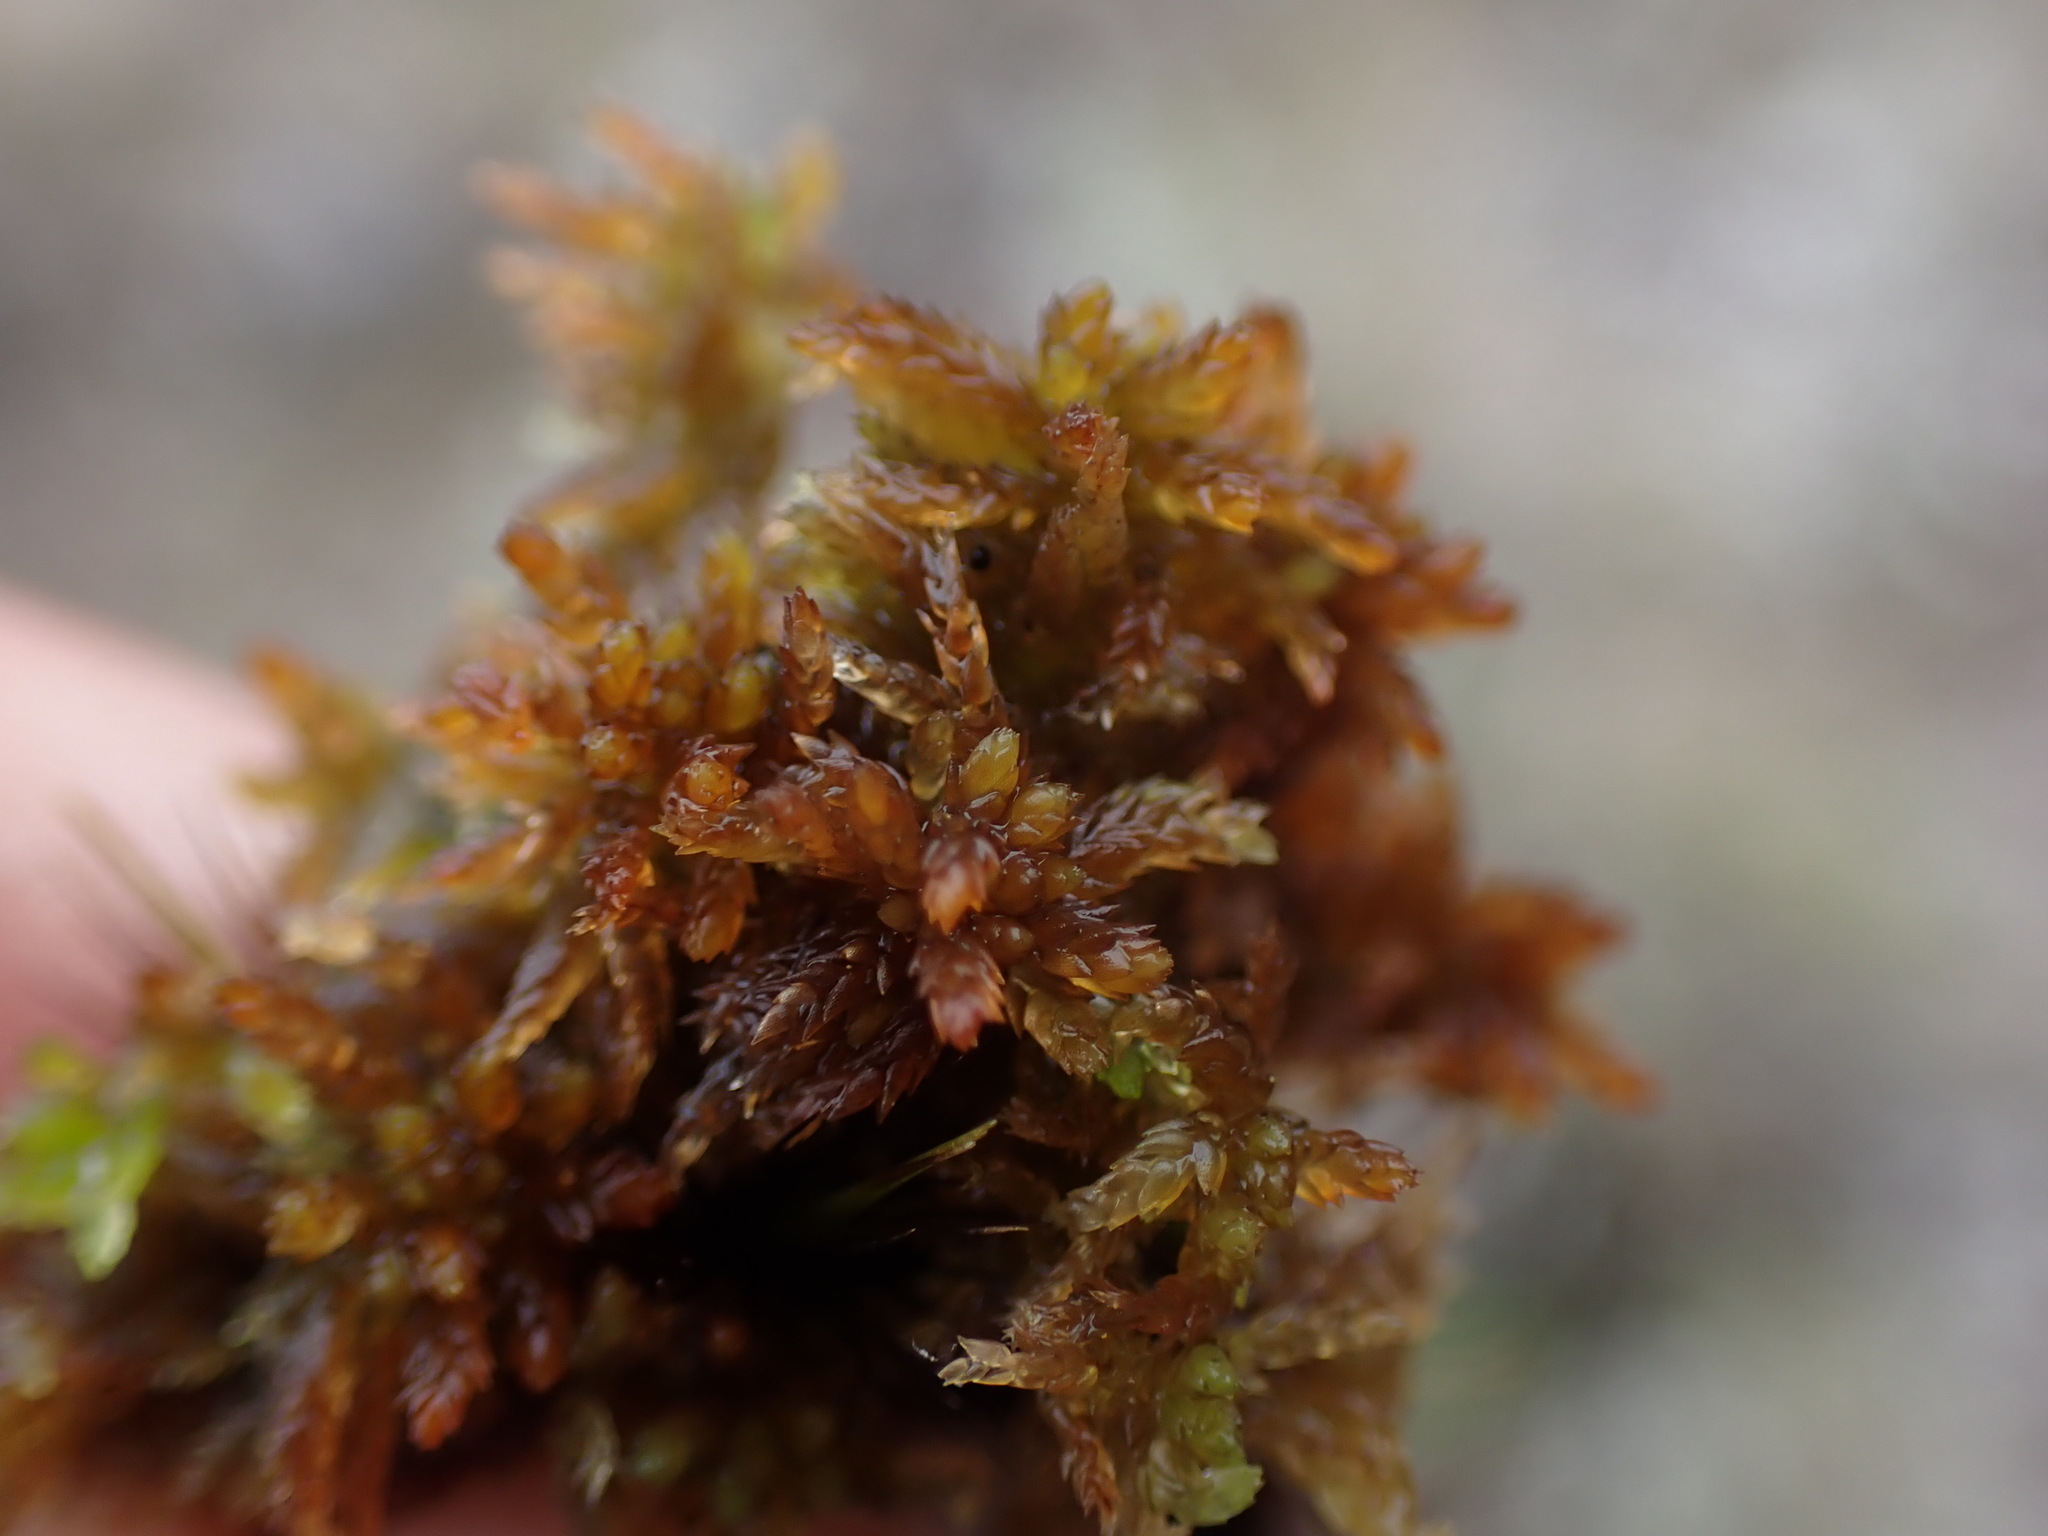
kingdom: Plantae
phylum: Bryophyta
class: Sphagnopsida
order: Sphagnales
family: Sphagnaceae
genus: Sphagnum
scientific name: Sphagnum tenellum
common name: Soft bog-moss
